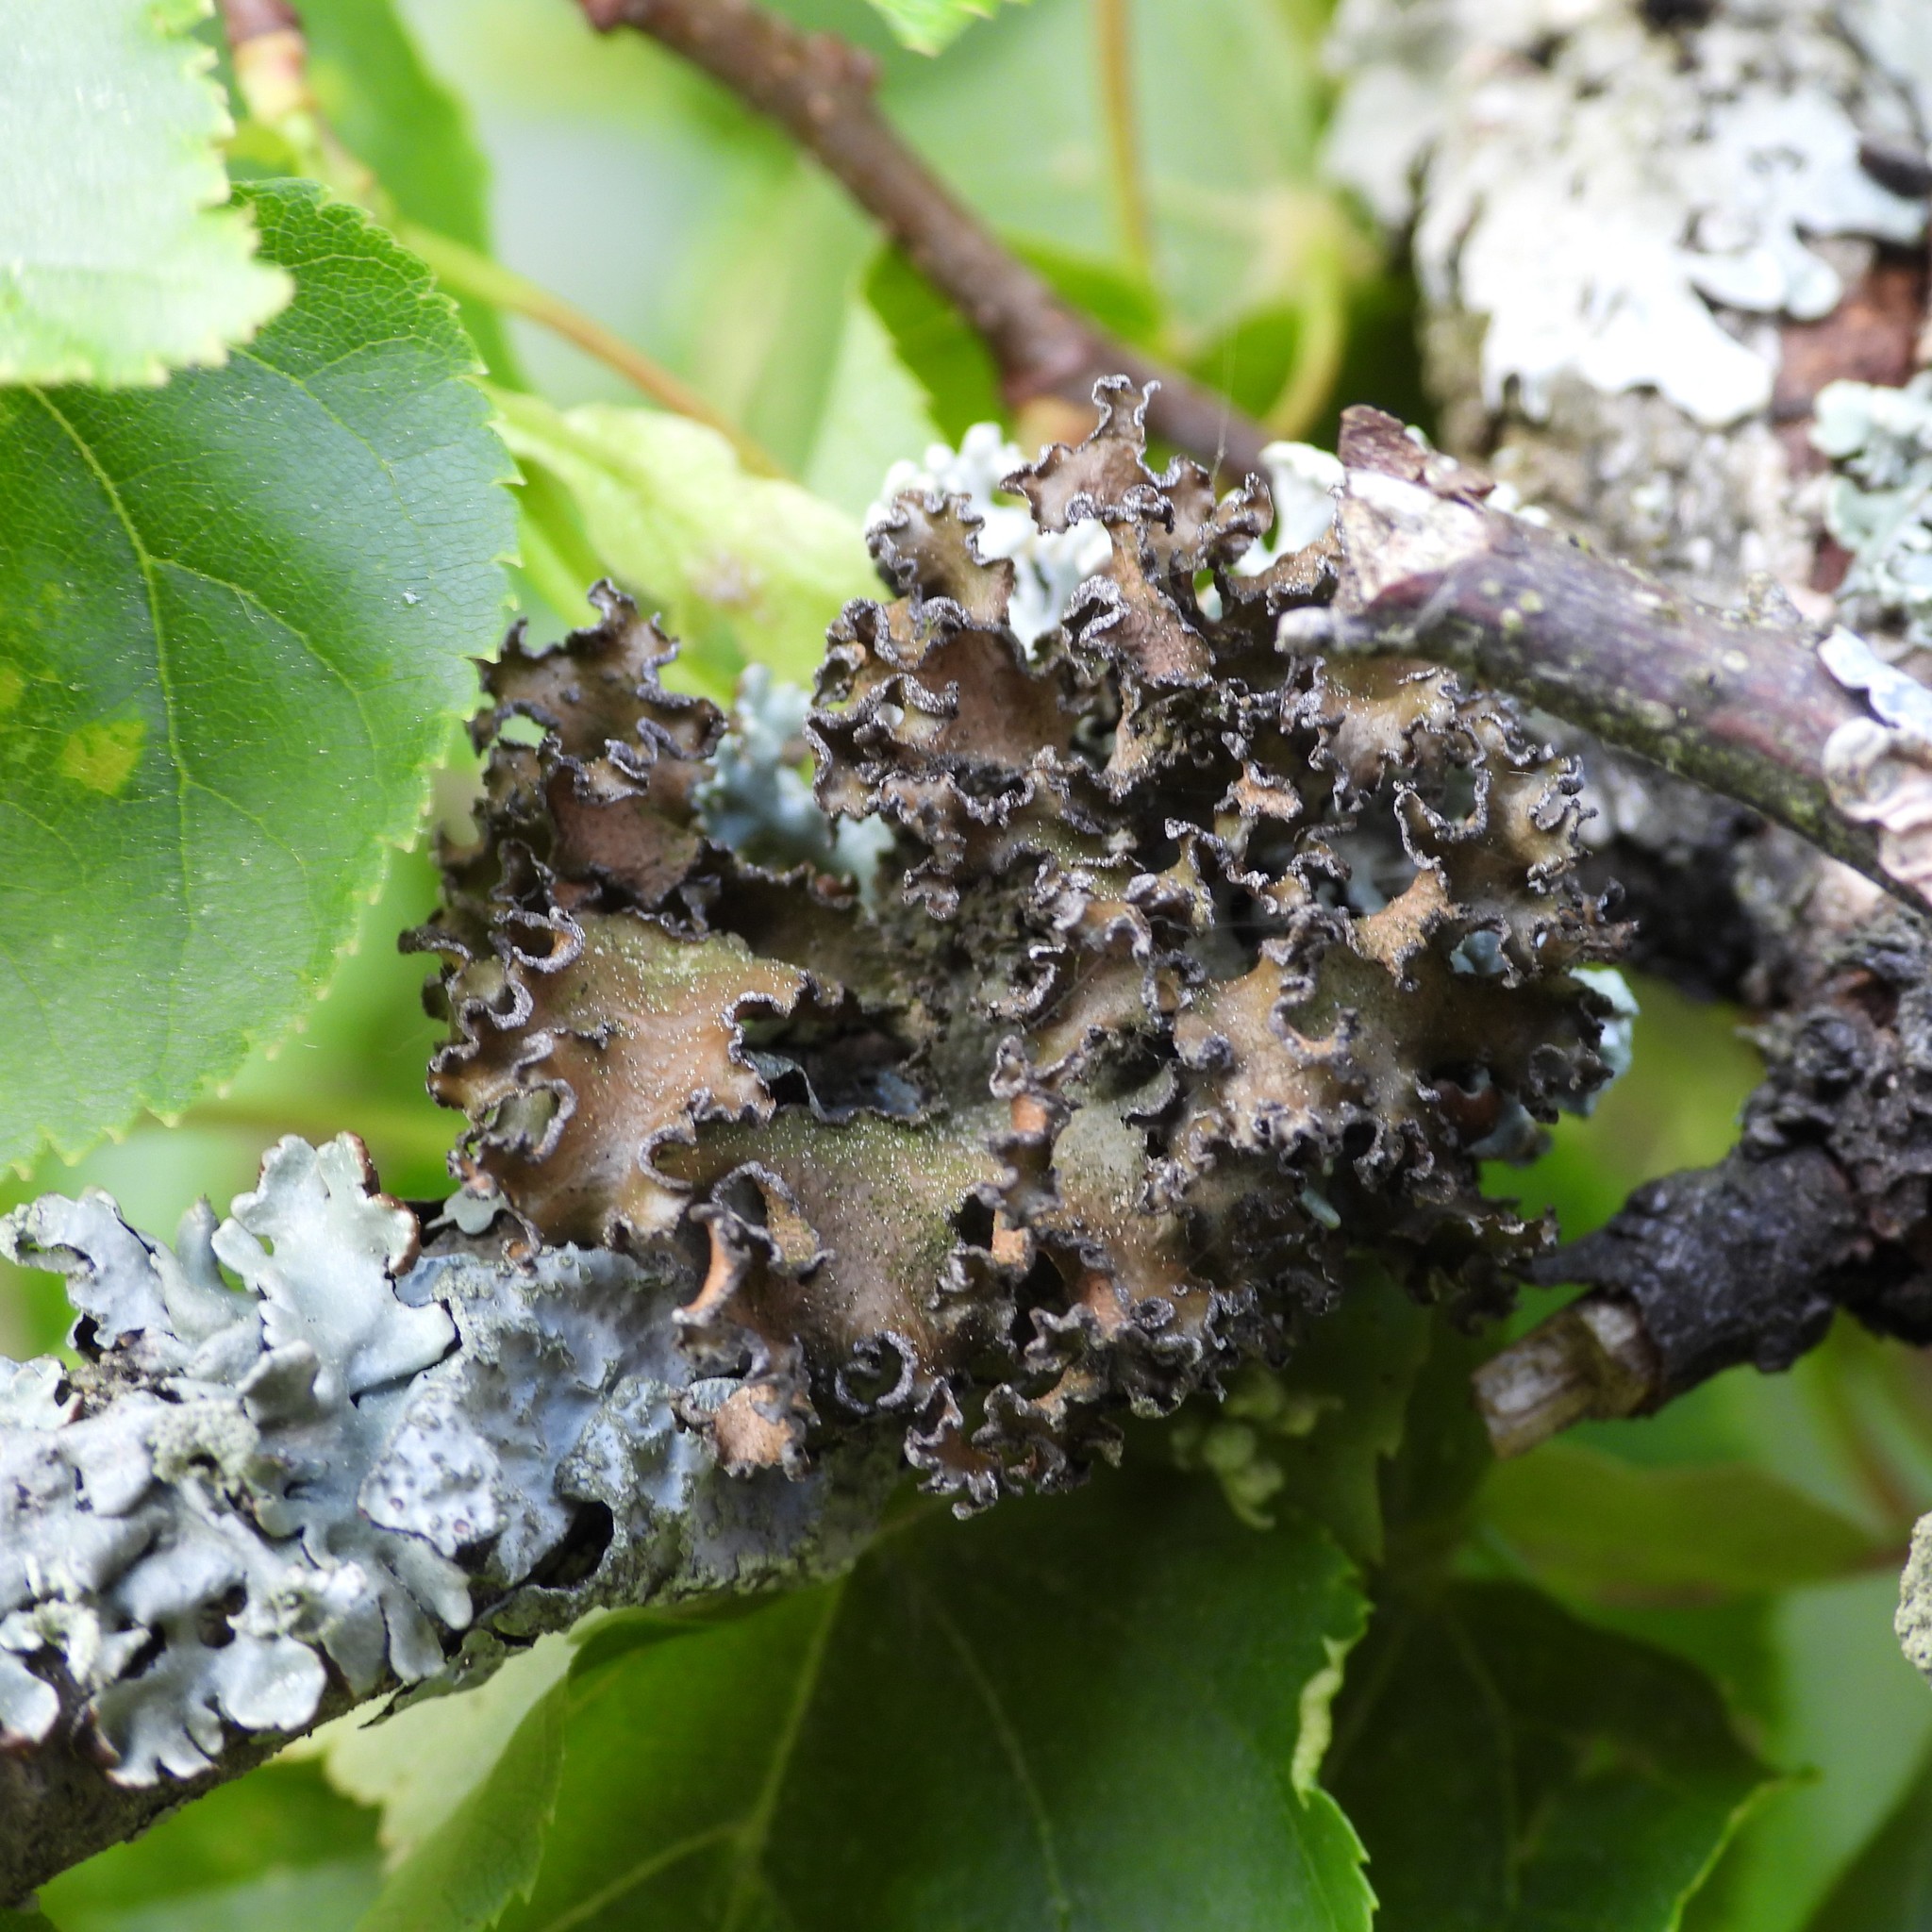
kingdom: Fungi
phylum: Ascomycota
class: Lecanoromycetes
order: Lecanorales
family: Parmeliaceae
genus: Nephromopsis
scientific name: Nephromopsis chlorophylla
